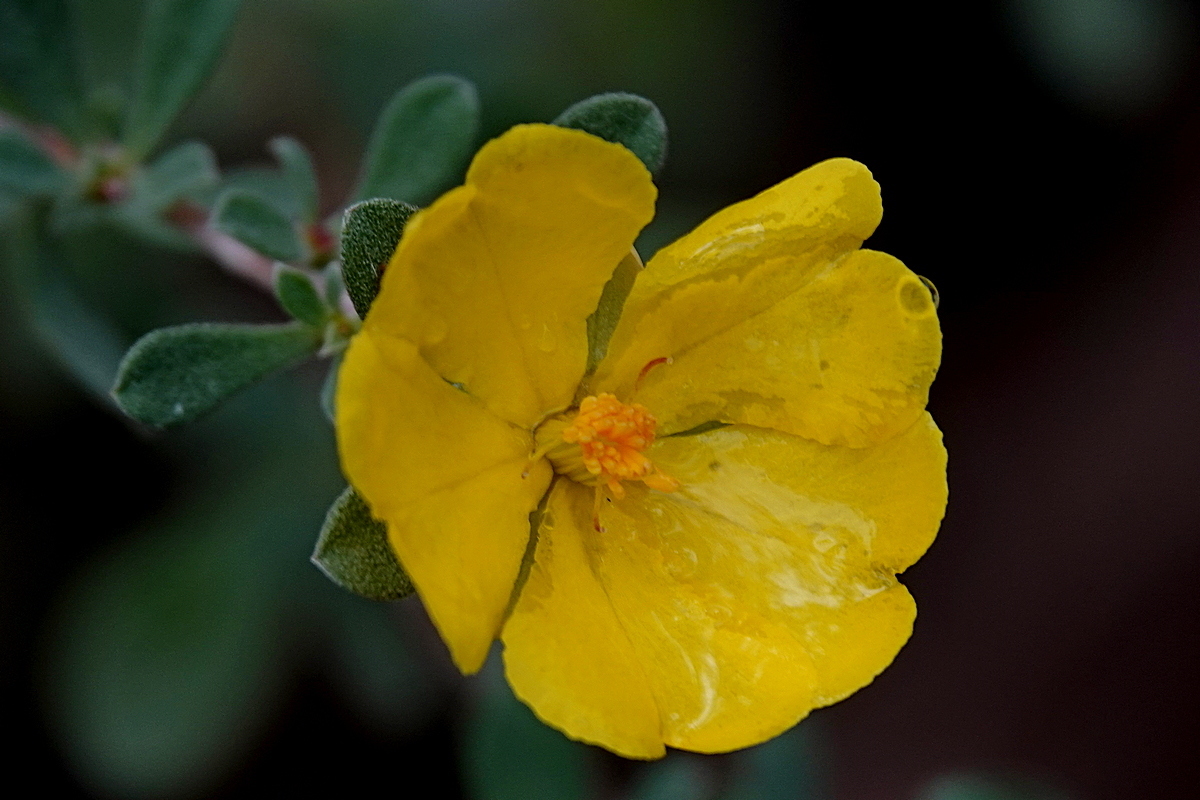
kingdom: Plantae
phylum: Tracheophyta
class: Magnoliopsida
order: Dilleniales
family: Dilleniaceae
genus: Hibbertia
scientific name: Hibbertia obtusifolia
